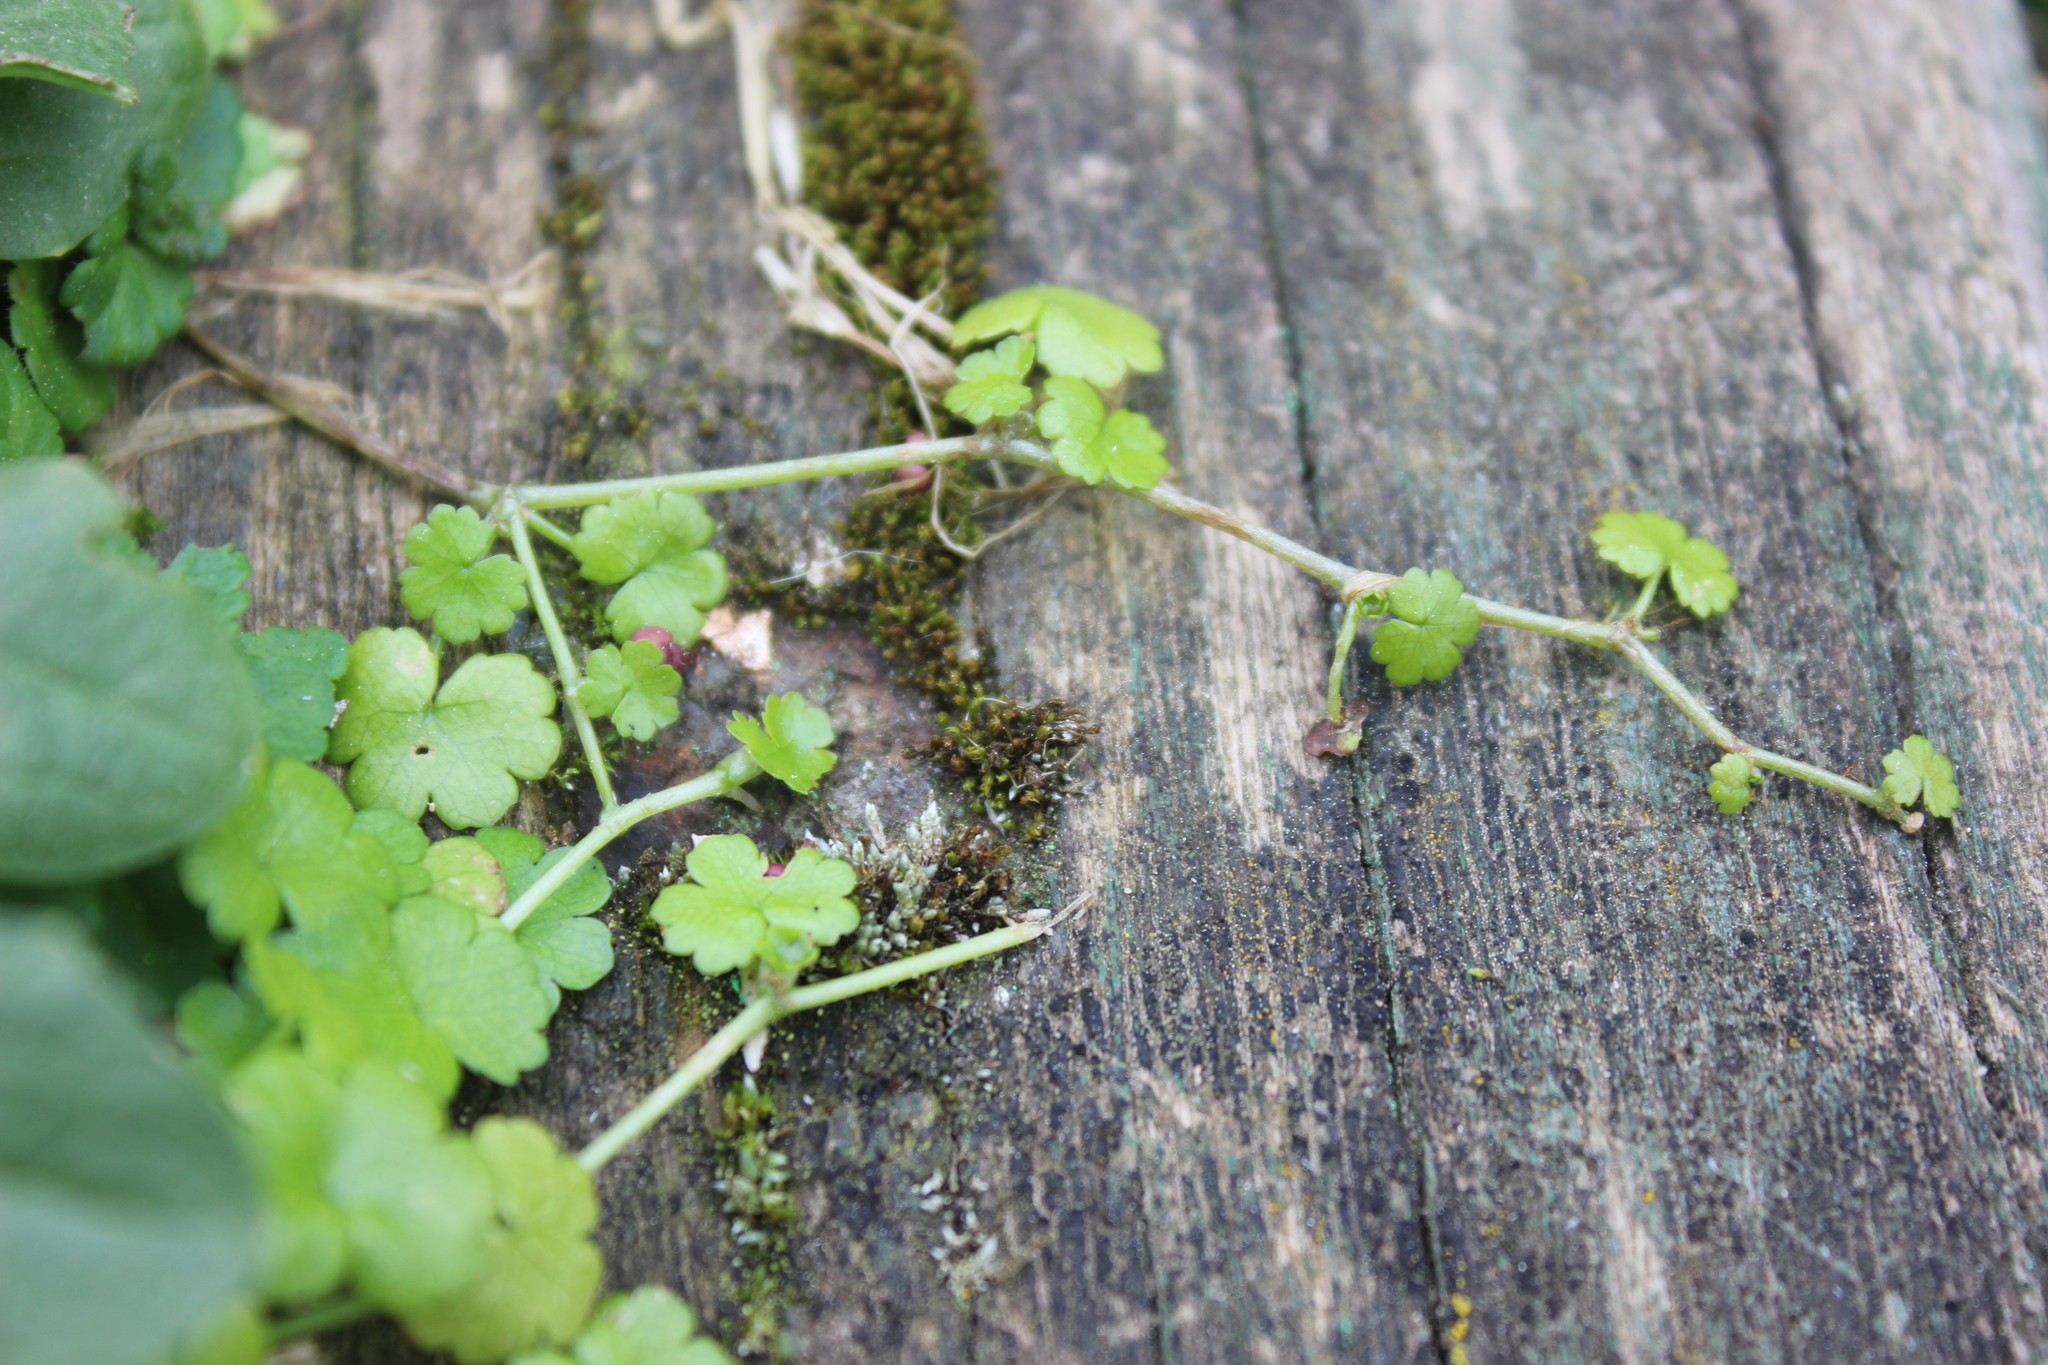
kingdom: Plantae
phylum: Tracheophyta
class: Magnoliopsida
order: Apiales
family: Araliaceae
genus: Hydrocotyle
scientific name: Hydrocotyle heteromeria
